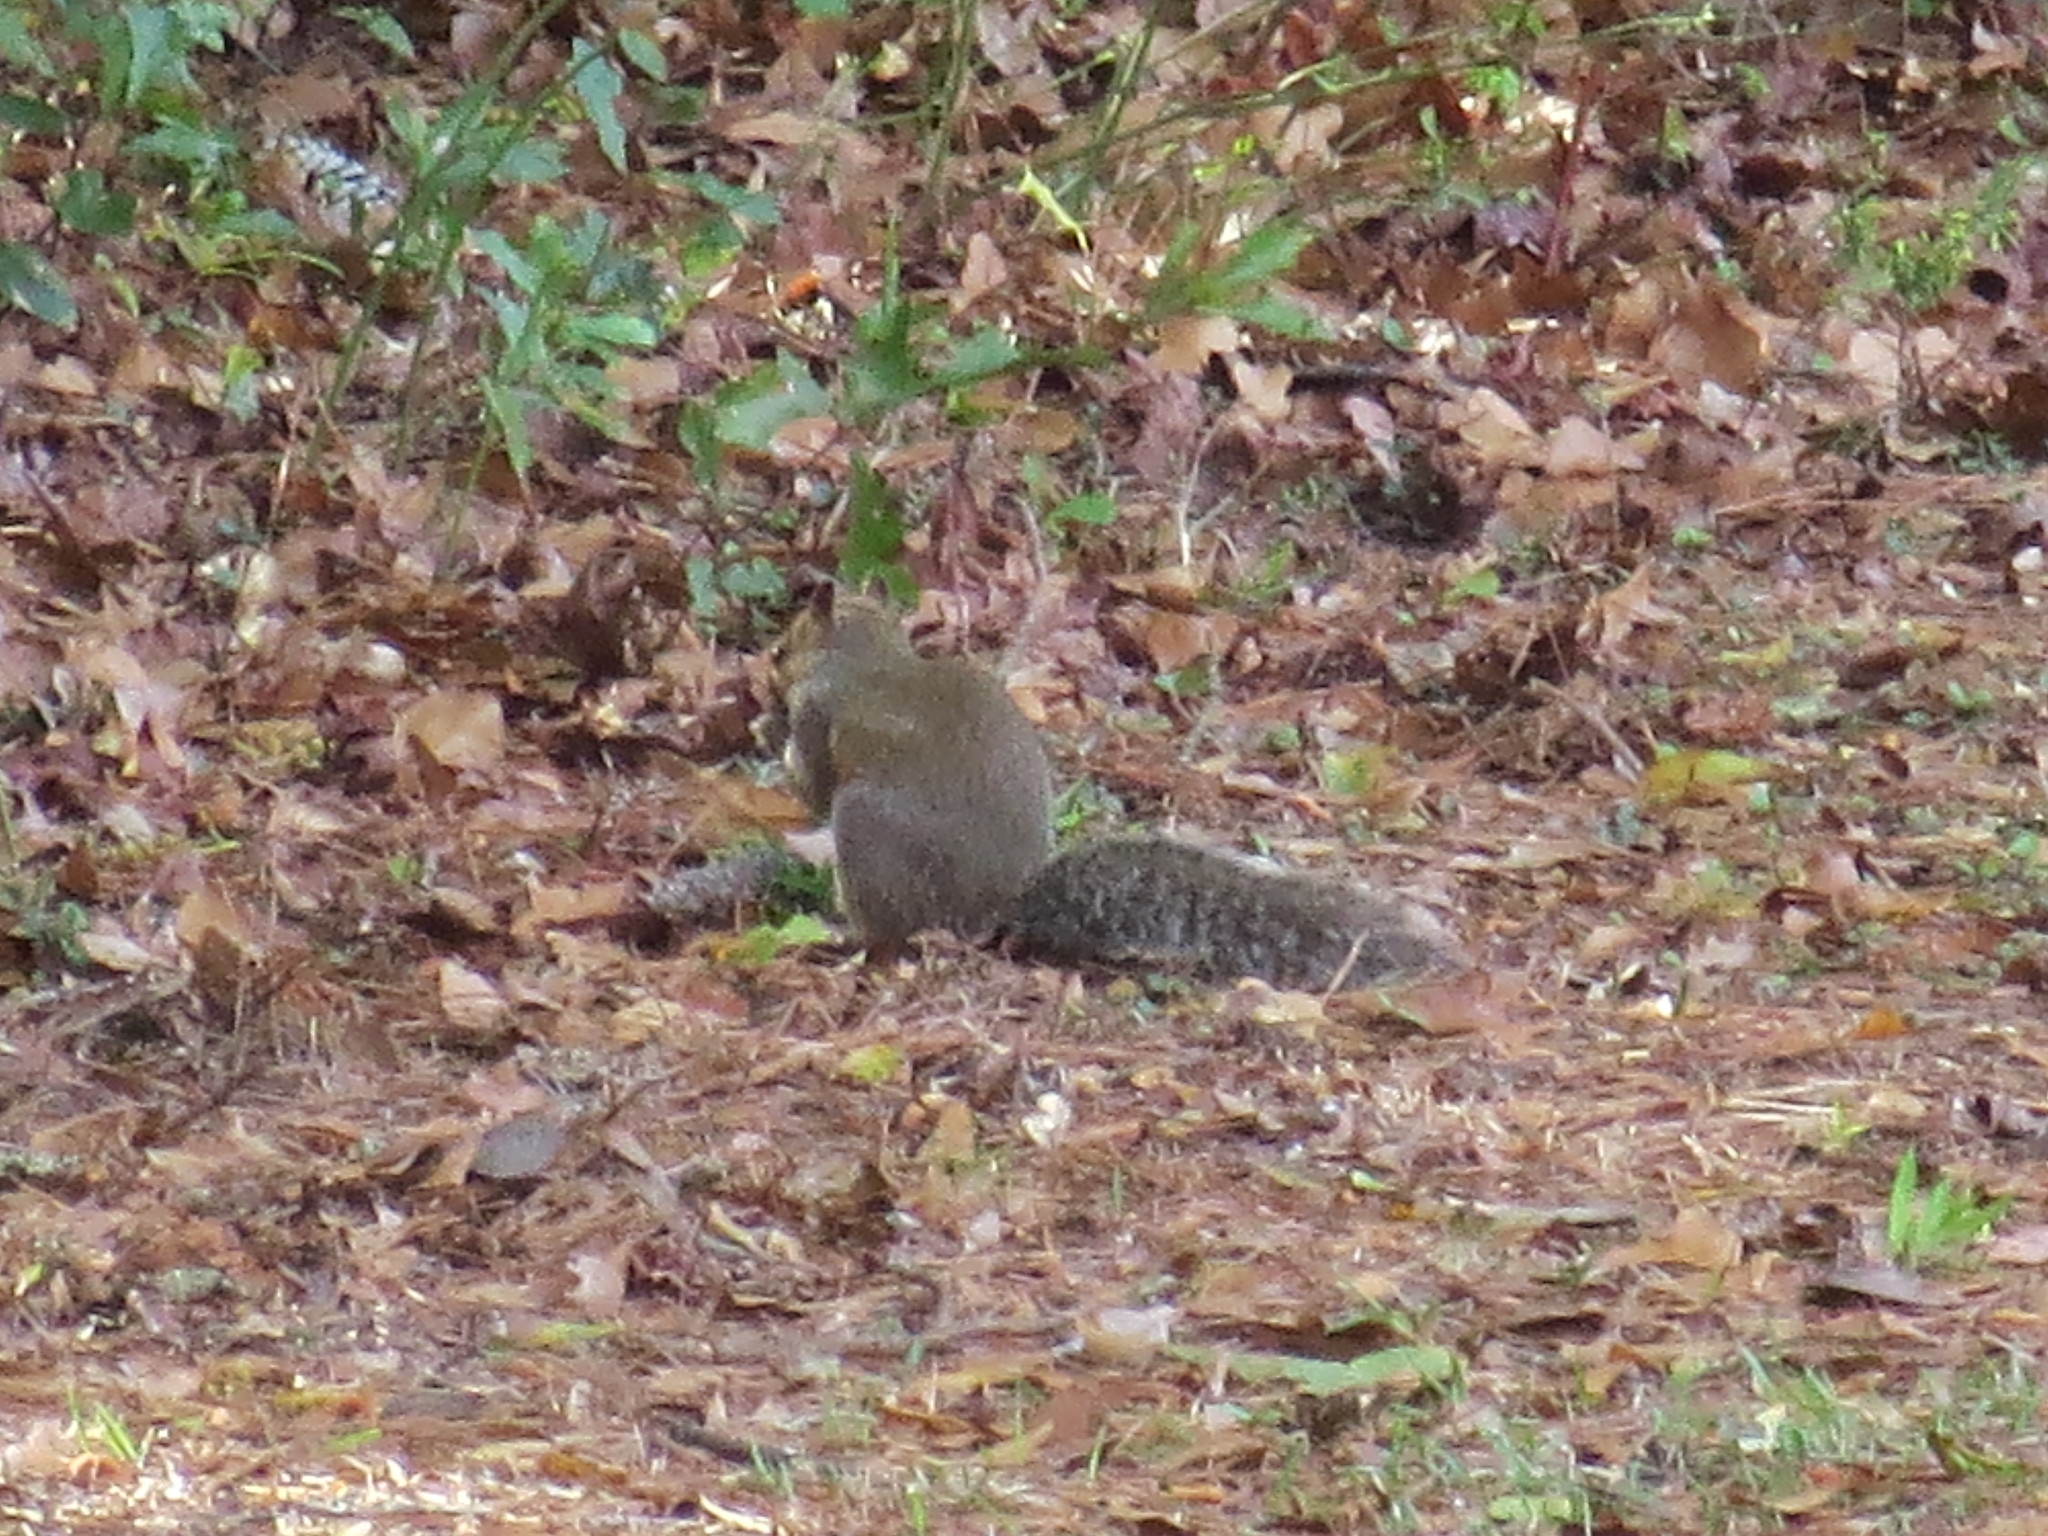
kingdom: Animalia
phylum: Chordata
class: Mammalia
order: Rodentia
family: Sciuridae
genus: Sciurus
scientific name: Sciurus carolinensis
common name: Eastern gray squirrel
